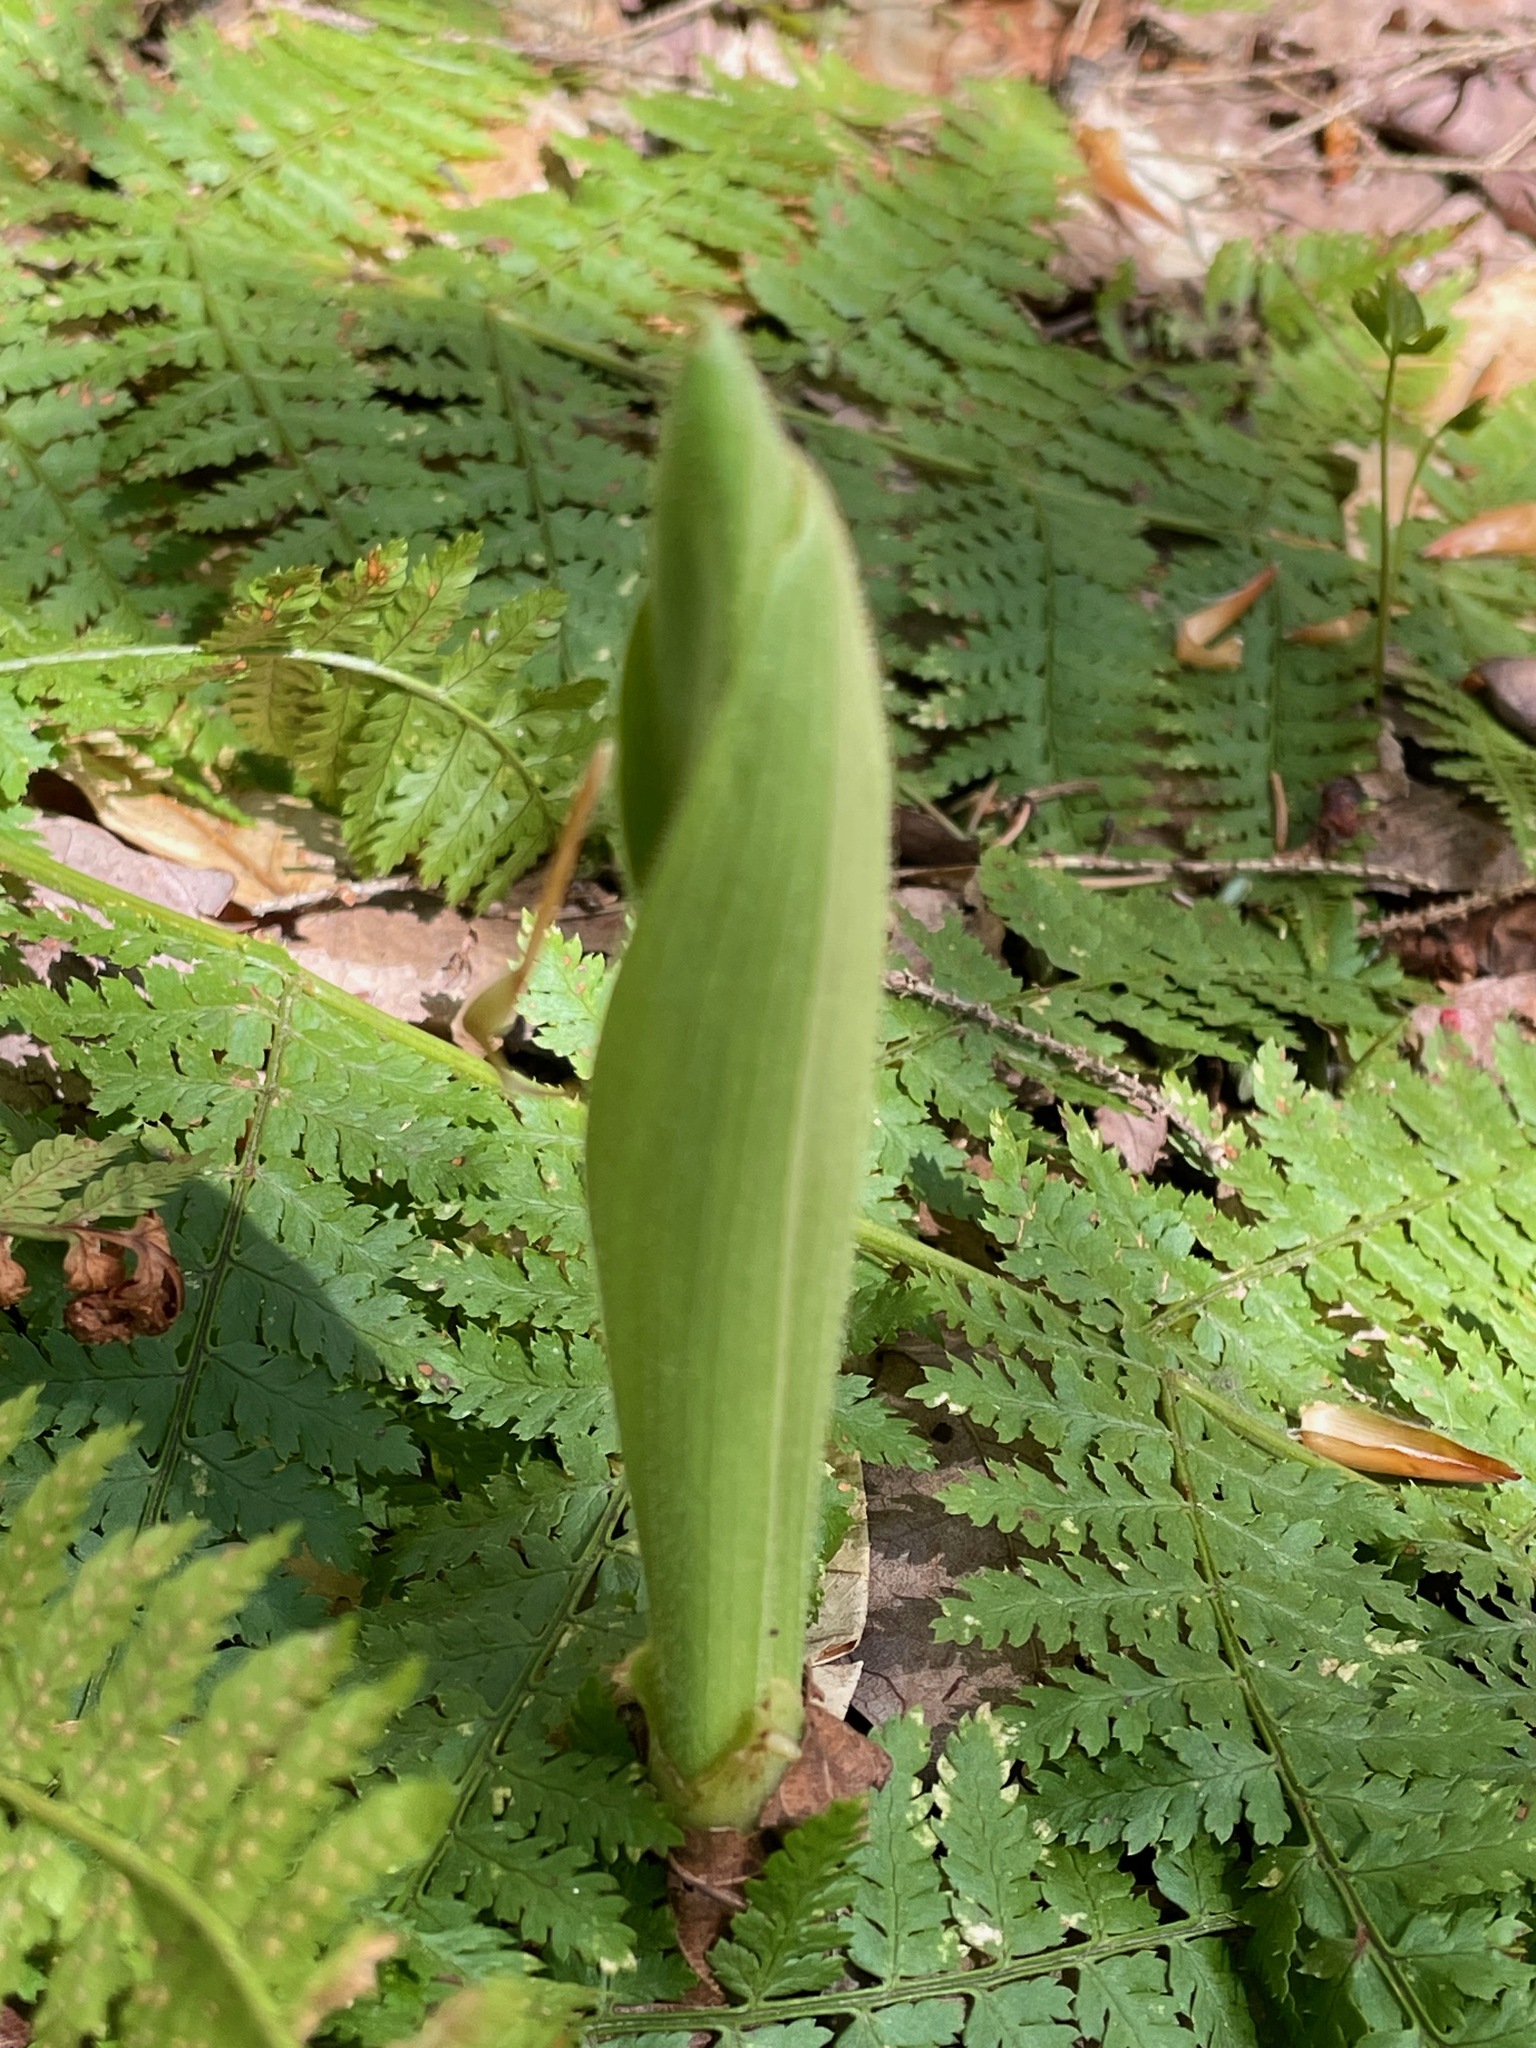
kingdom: Plantae
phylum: Tracheophyta
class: Liliopsida
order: Asparagales
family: Orchidaceae
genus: Cypripedium
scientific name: Cypripedium acaule
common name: Pink lady's-slipper
